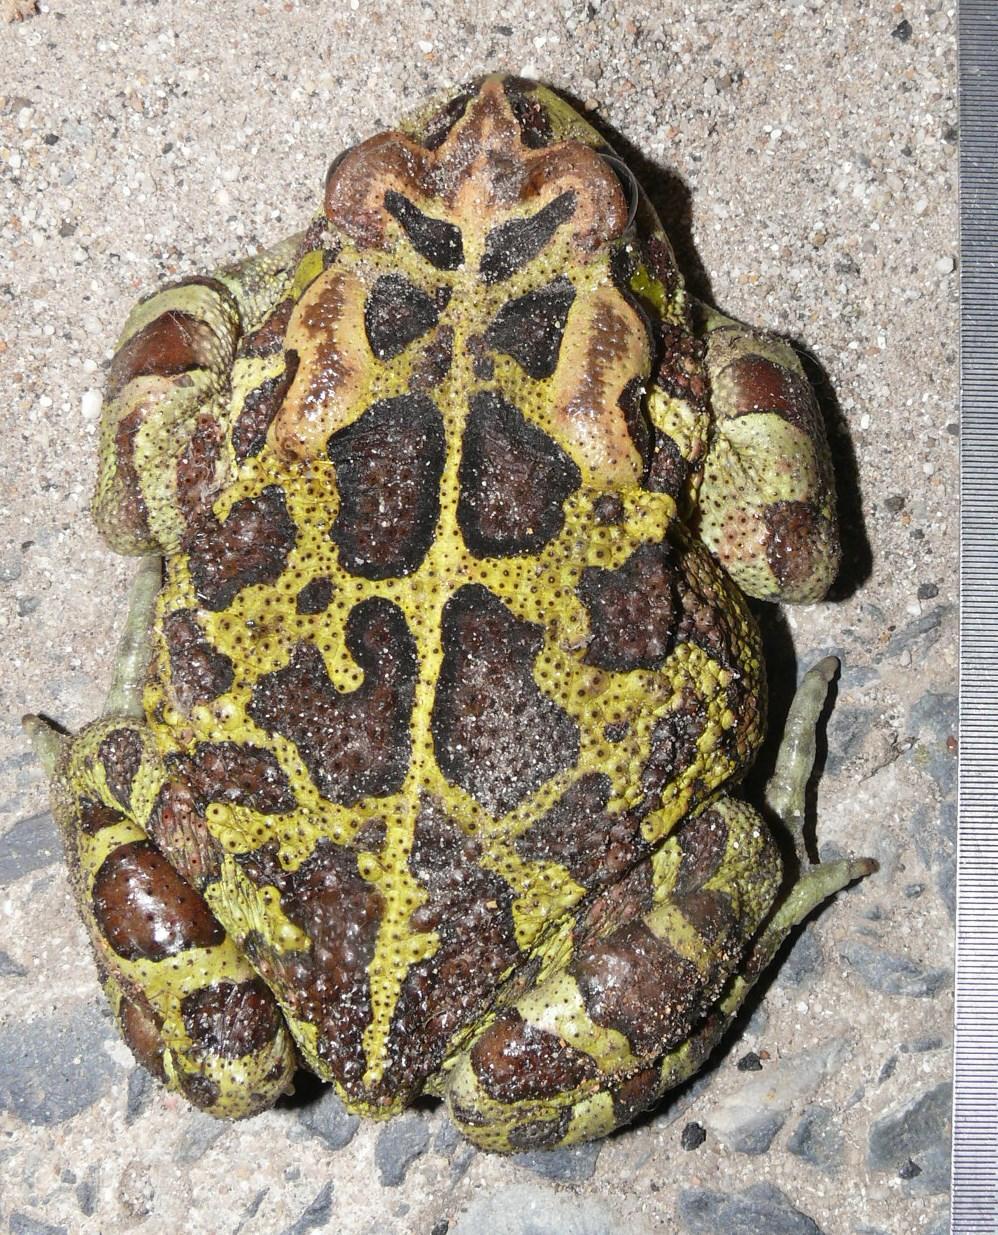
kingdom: Animalia
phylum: Chordata
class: Amphibia
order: Anura
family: Bufonidae
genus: Sclerophrys
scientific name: Sclerophrys pantherina
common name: Panther toad
